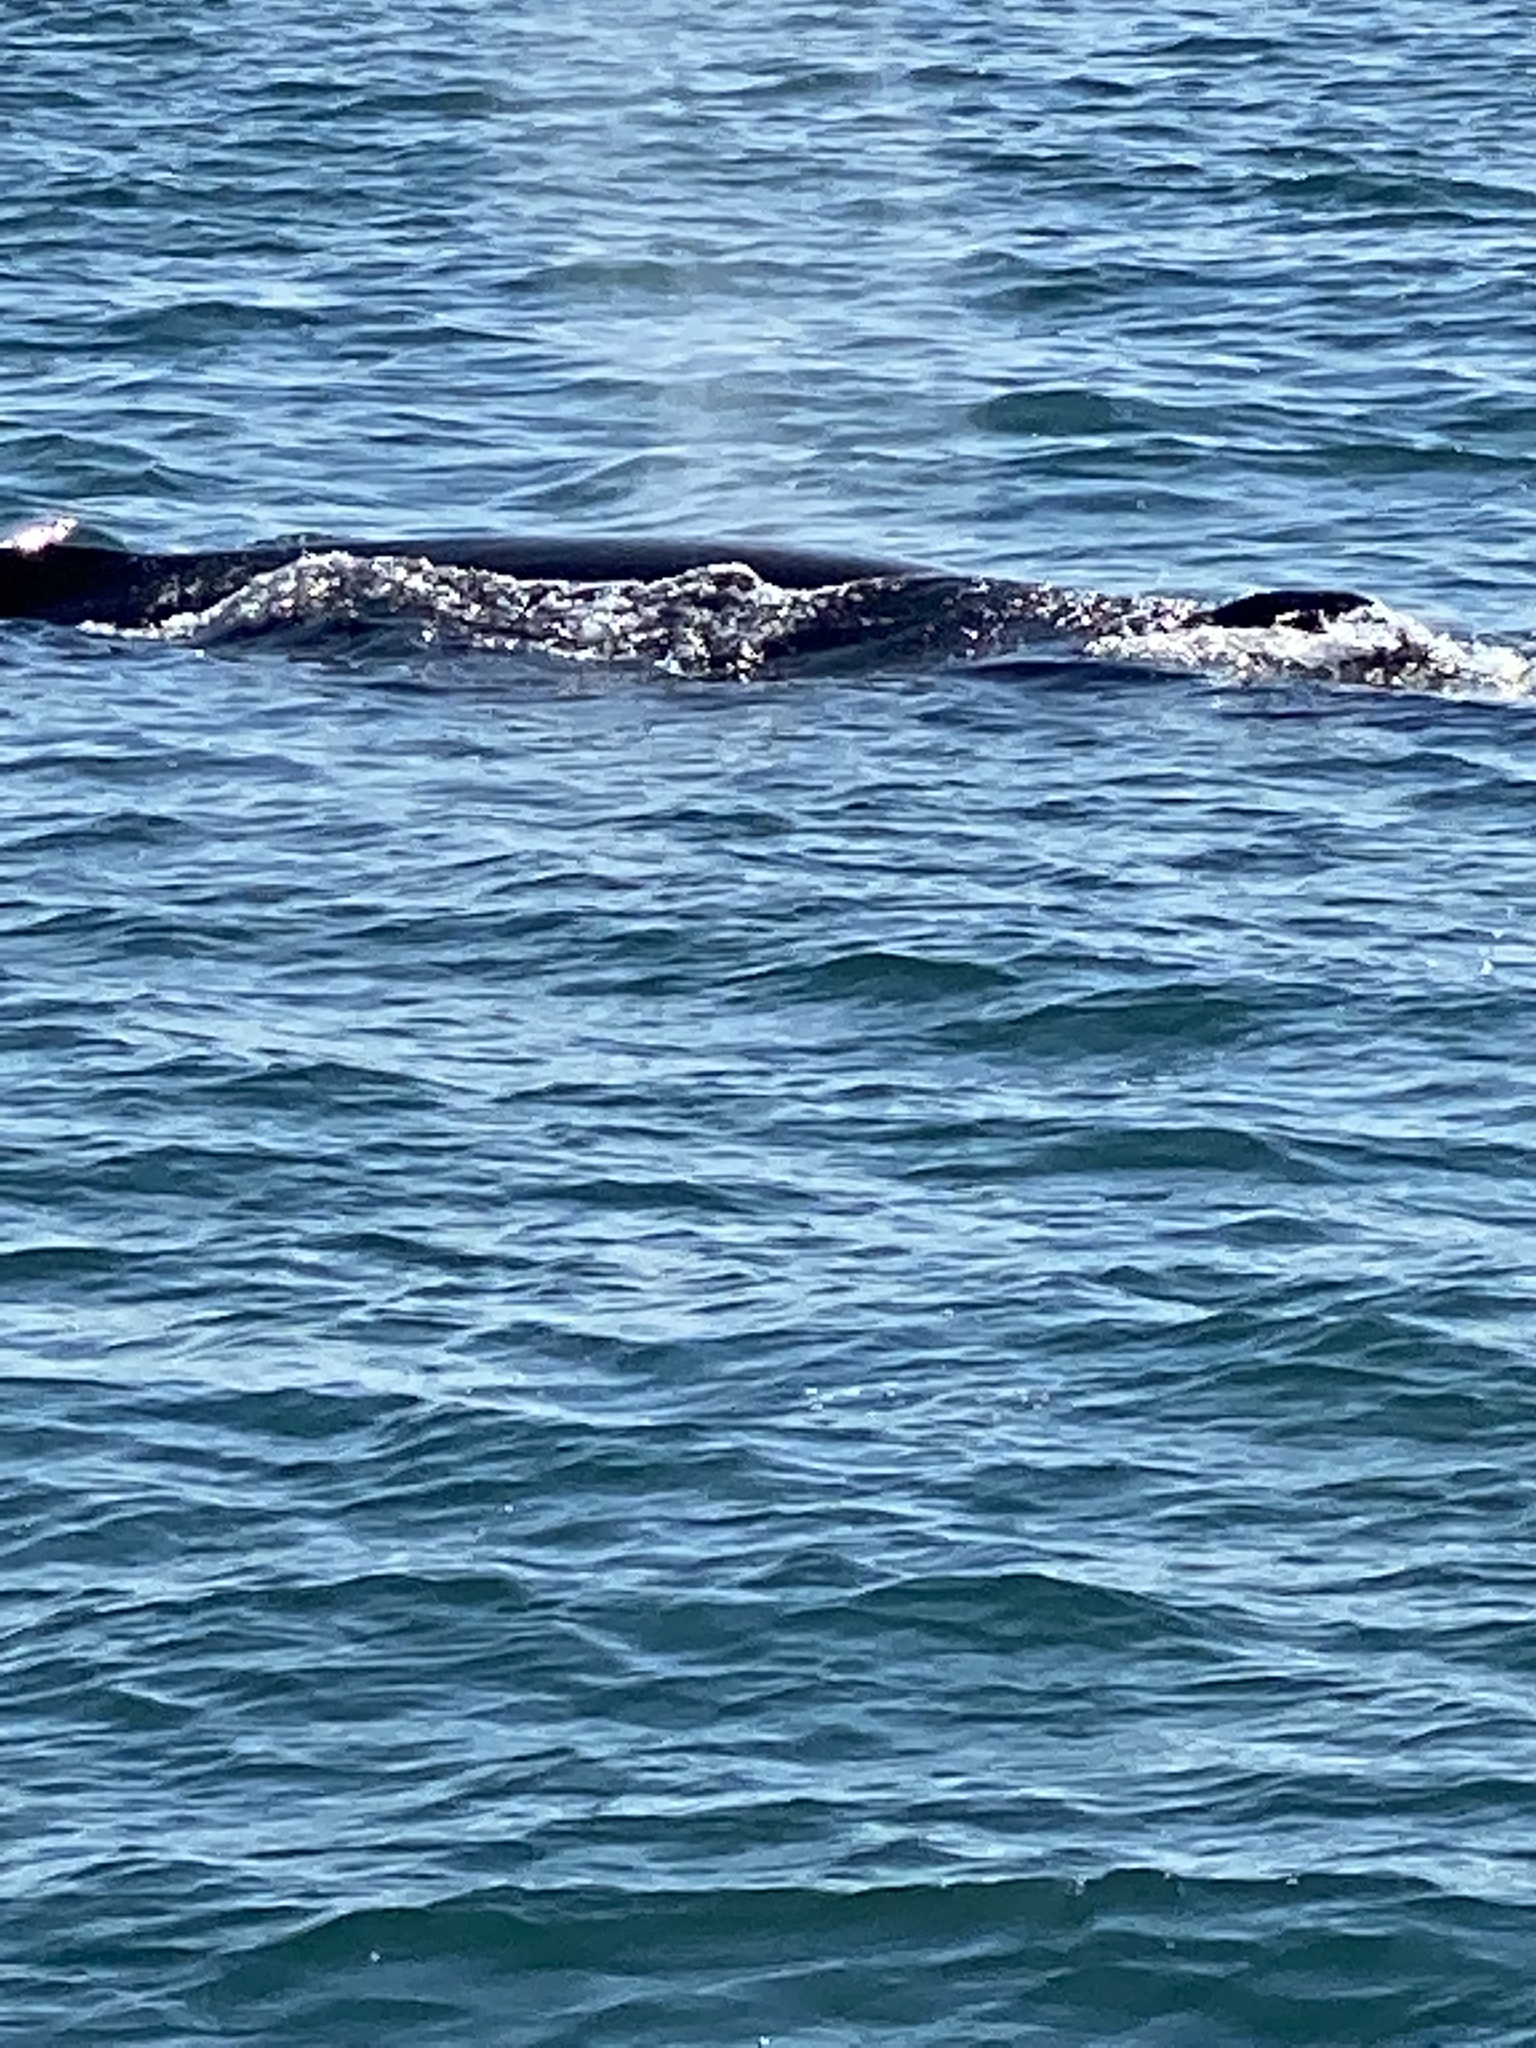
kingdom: Animalia
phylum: Chordata
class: Mammalia
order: Cetacea
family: Balaenopteridae
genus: Megaptera
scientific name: Megaptera novaeangliae
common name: Humpback whale
